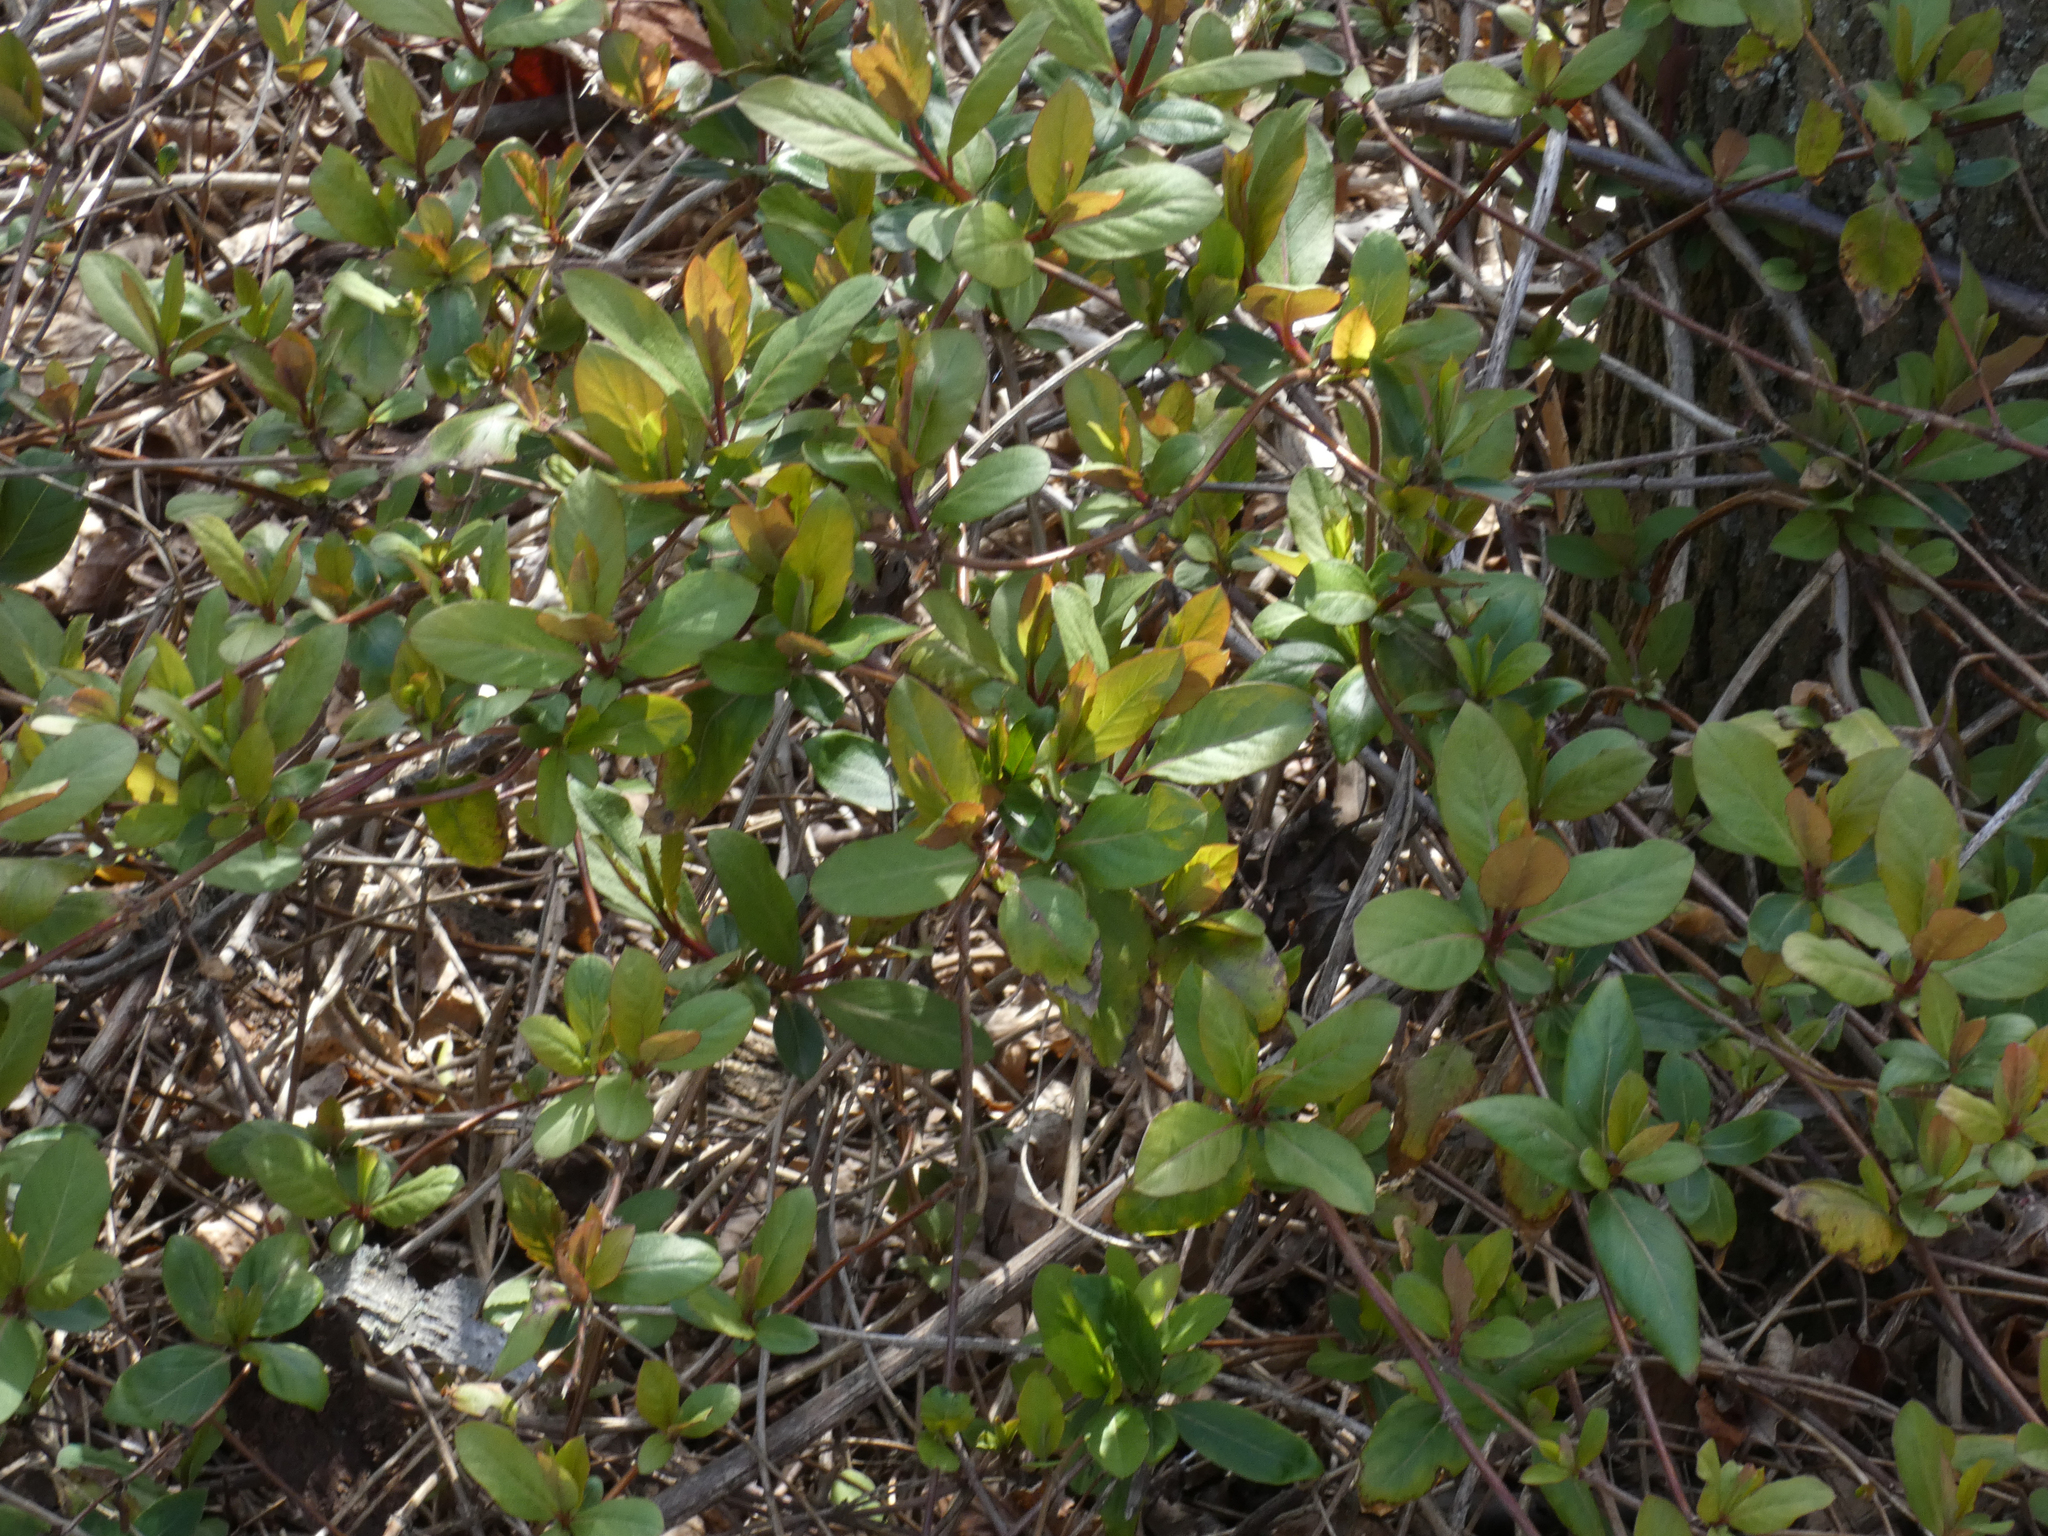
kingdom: Plantae
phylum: Tracheophyta
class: Magnoliopsida
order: Dipsacales
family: Caprifoliaceae
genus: Lonicera
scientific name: Lonicera japonica
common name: Japanese honeysuckle
